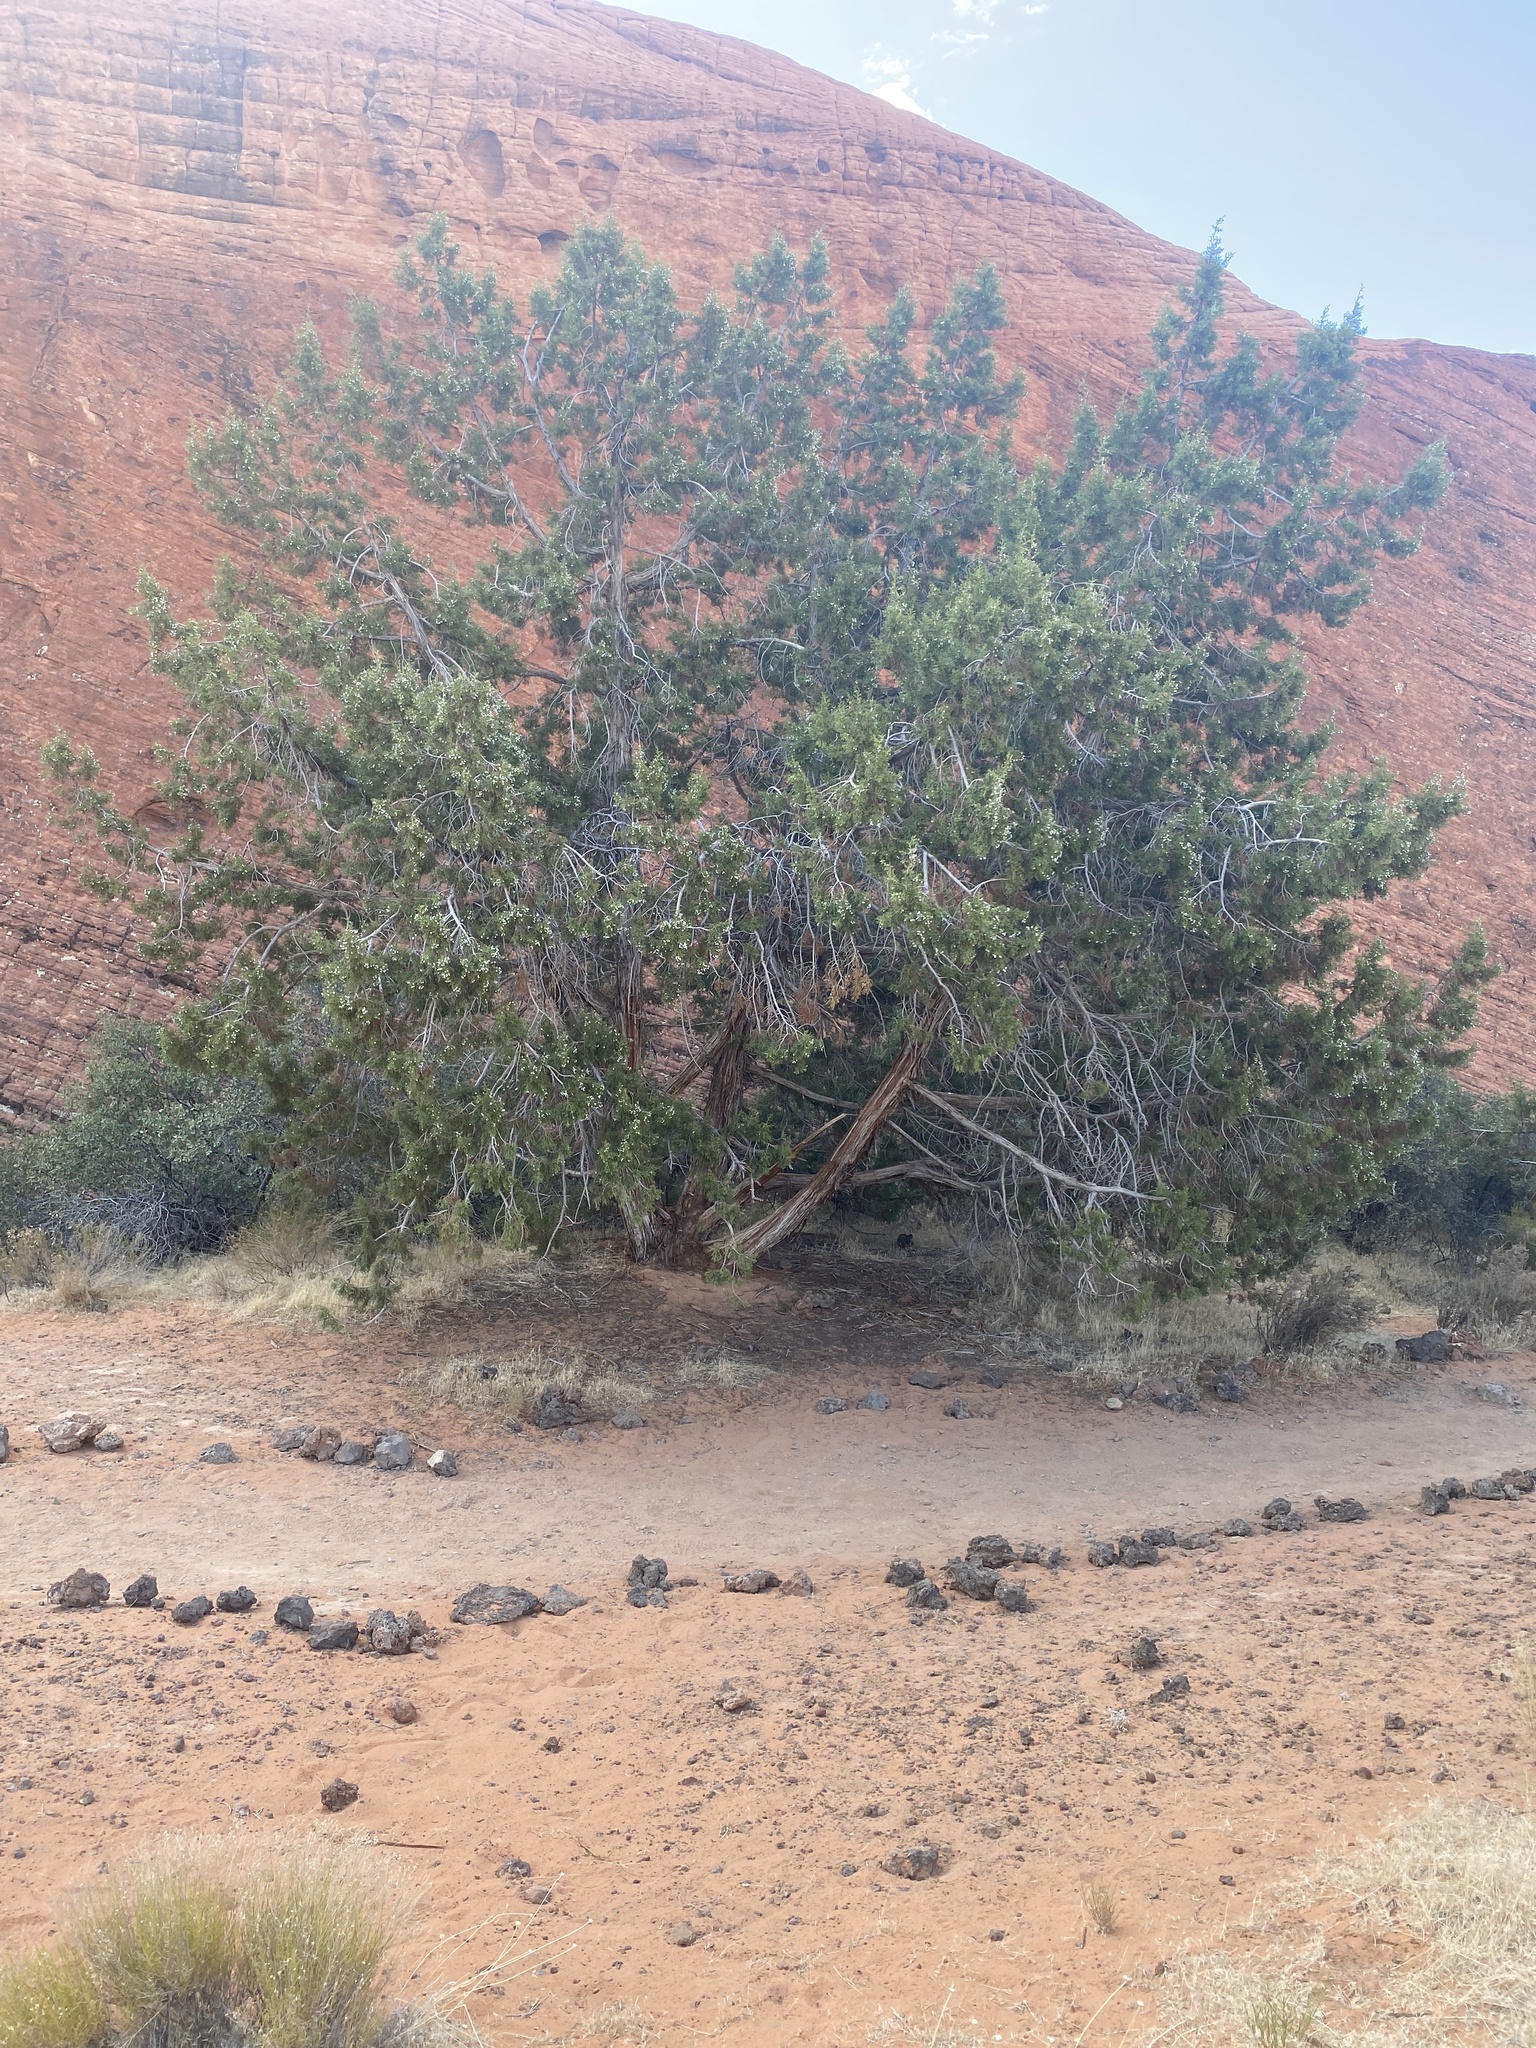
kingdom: Plantae
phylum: Tracheophyta
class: Pinopsida
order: Pinales
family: Cupressaceae
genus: Juniperus
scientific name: Juniperus osteosperma
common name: Utah juniper
